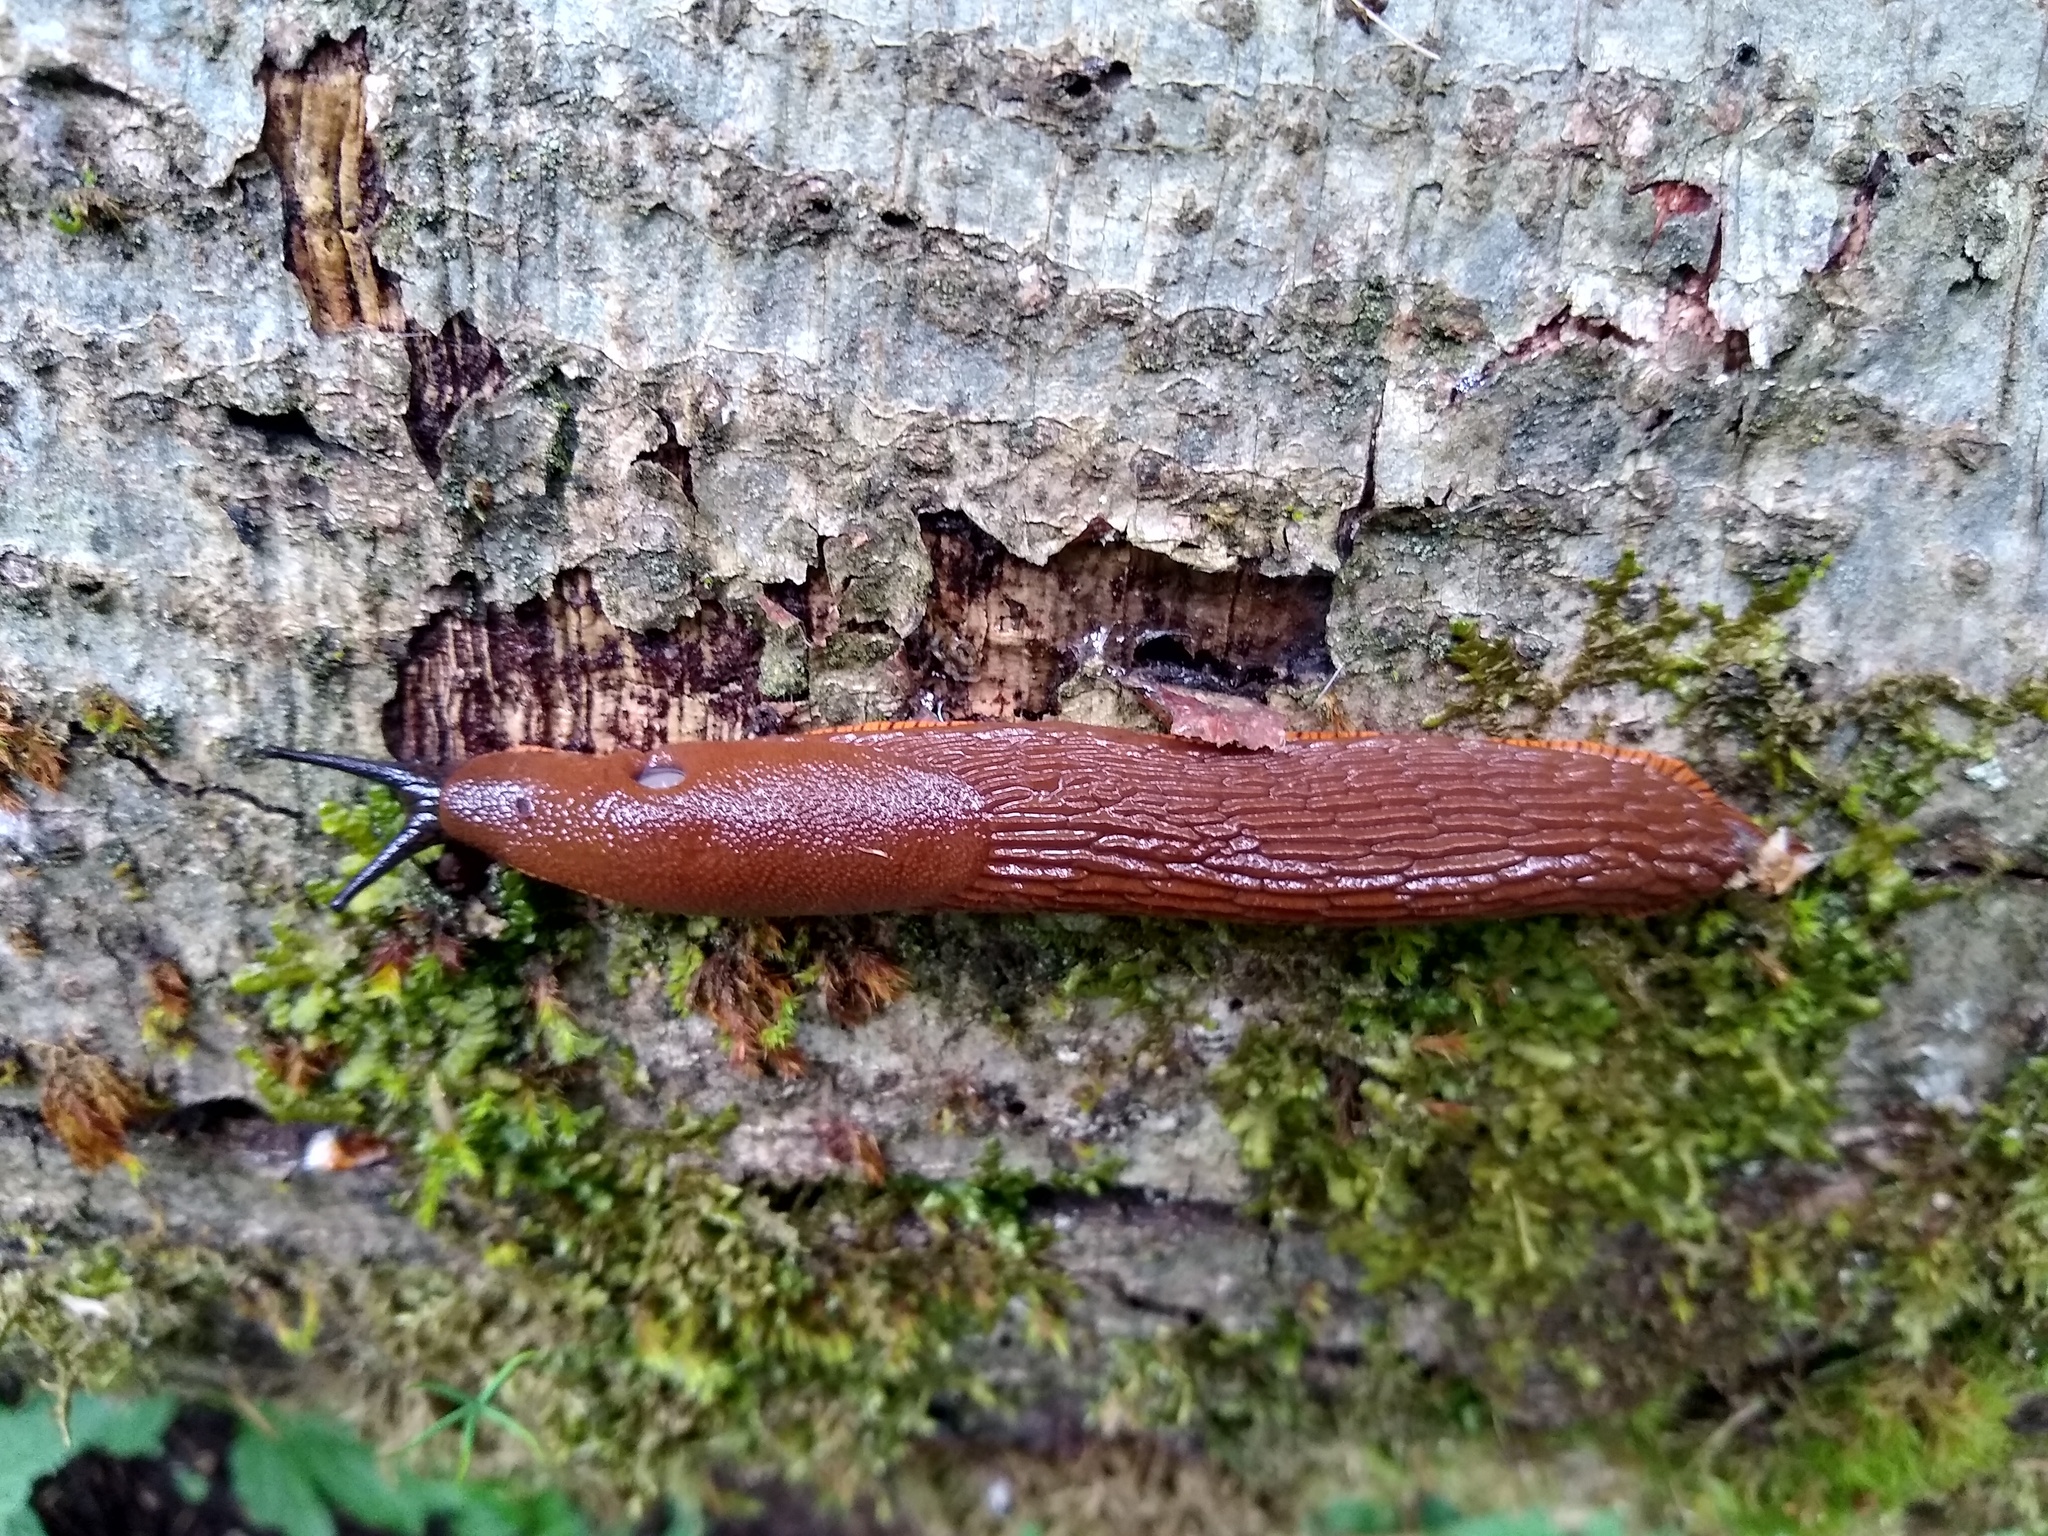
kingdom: Animalia
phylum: Mollusca
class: Gastropoda
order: Stylommatophora
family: Arionidae
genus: Arion
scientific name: Arion rufus
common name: Chocolate arion
